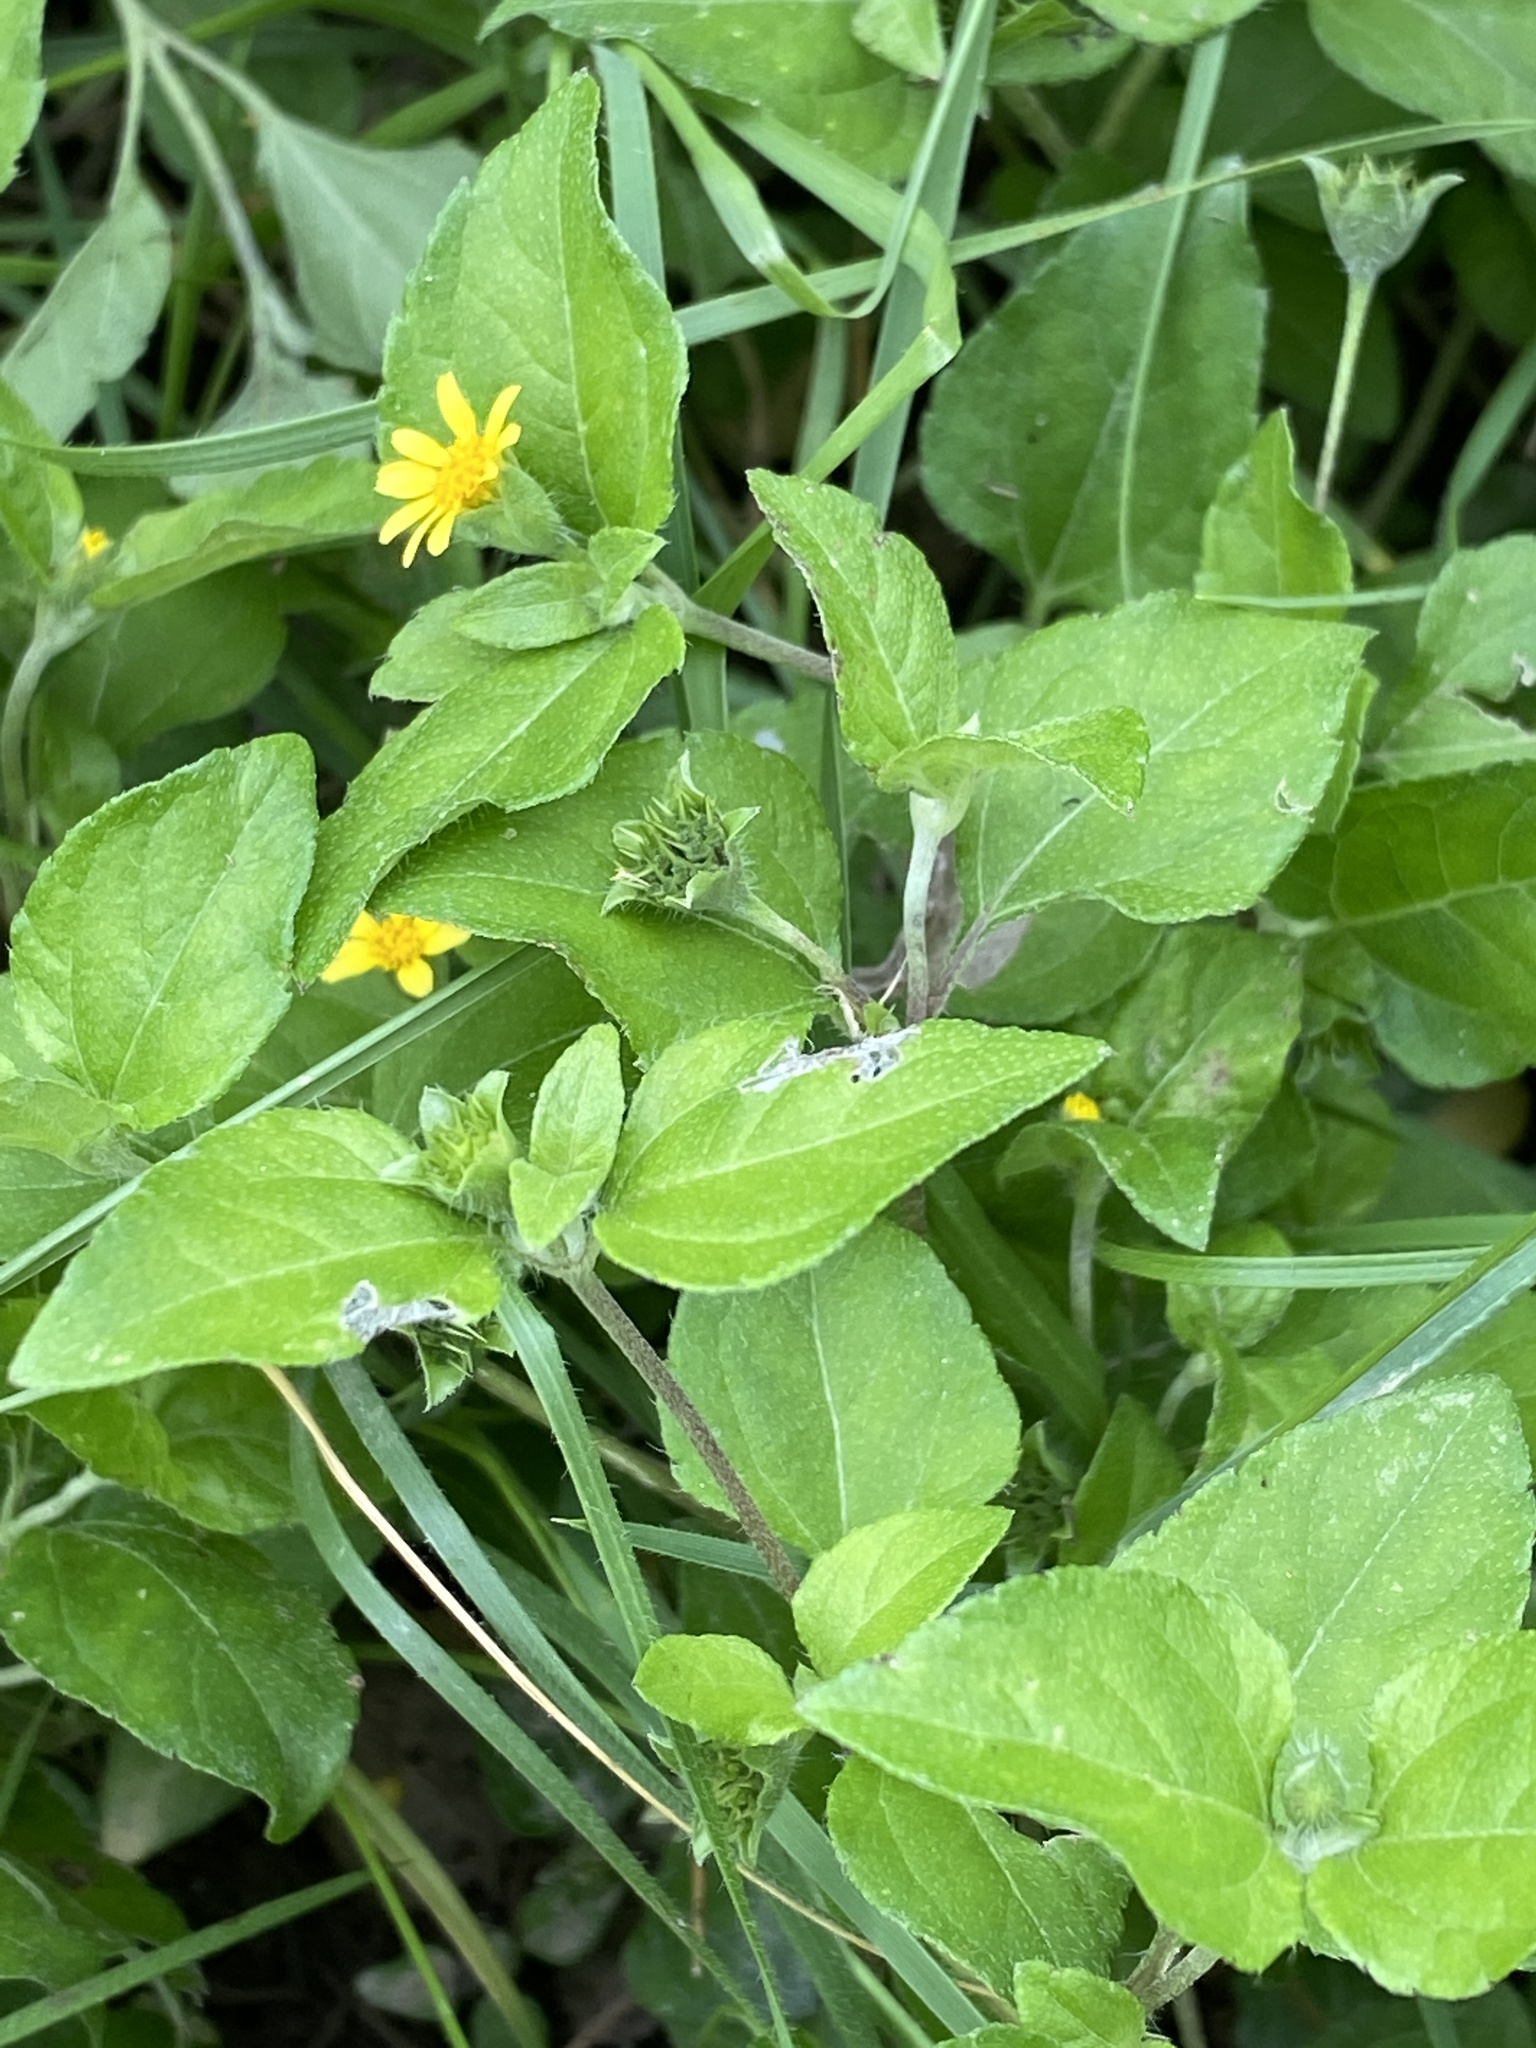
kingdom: Plantae
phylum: Tracheophyta
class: Magnoliopsida
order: Asterales
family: Asteraceae
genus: Calyptocarpus
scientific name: Calyptocarpus vialis
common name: Straggler daisy
